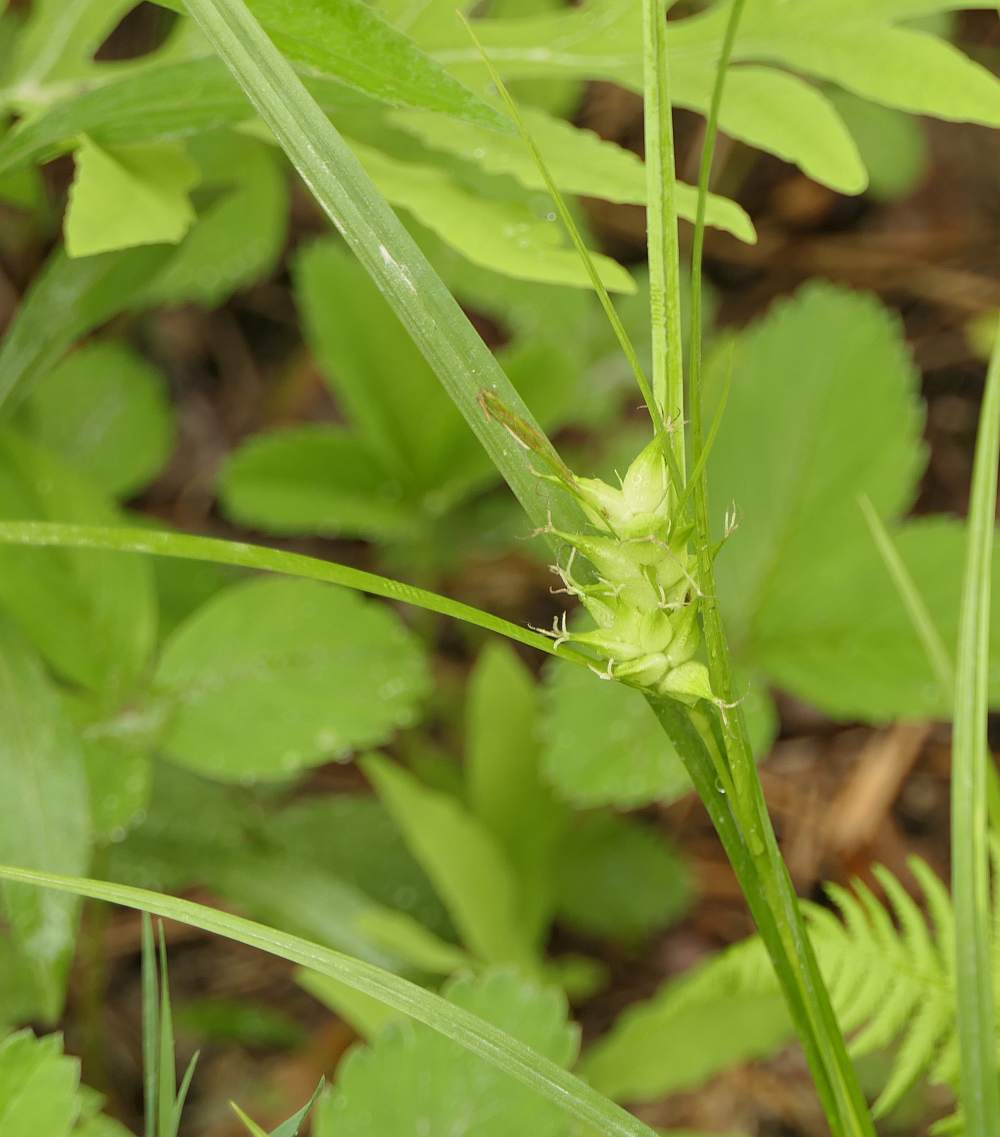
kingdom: Plantae
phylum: Tracheophyta
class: Liliopsida
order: Poales
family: Cyperaceae
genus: Carex
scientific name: Carex intumescens
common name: Greater bladder sedge
